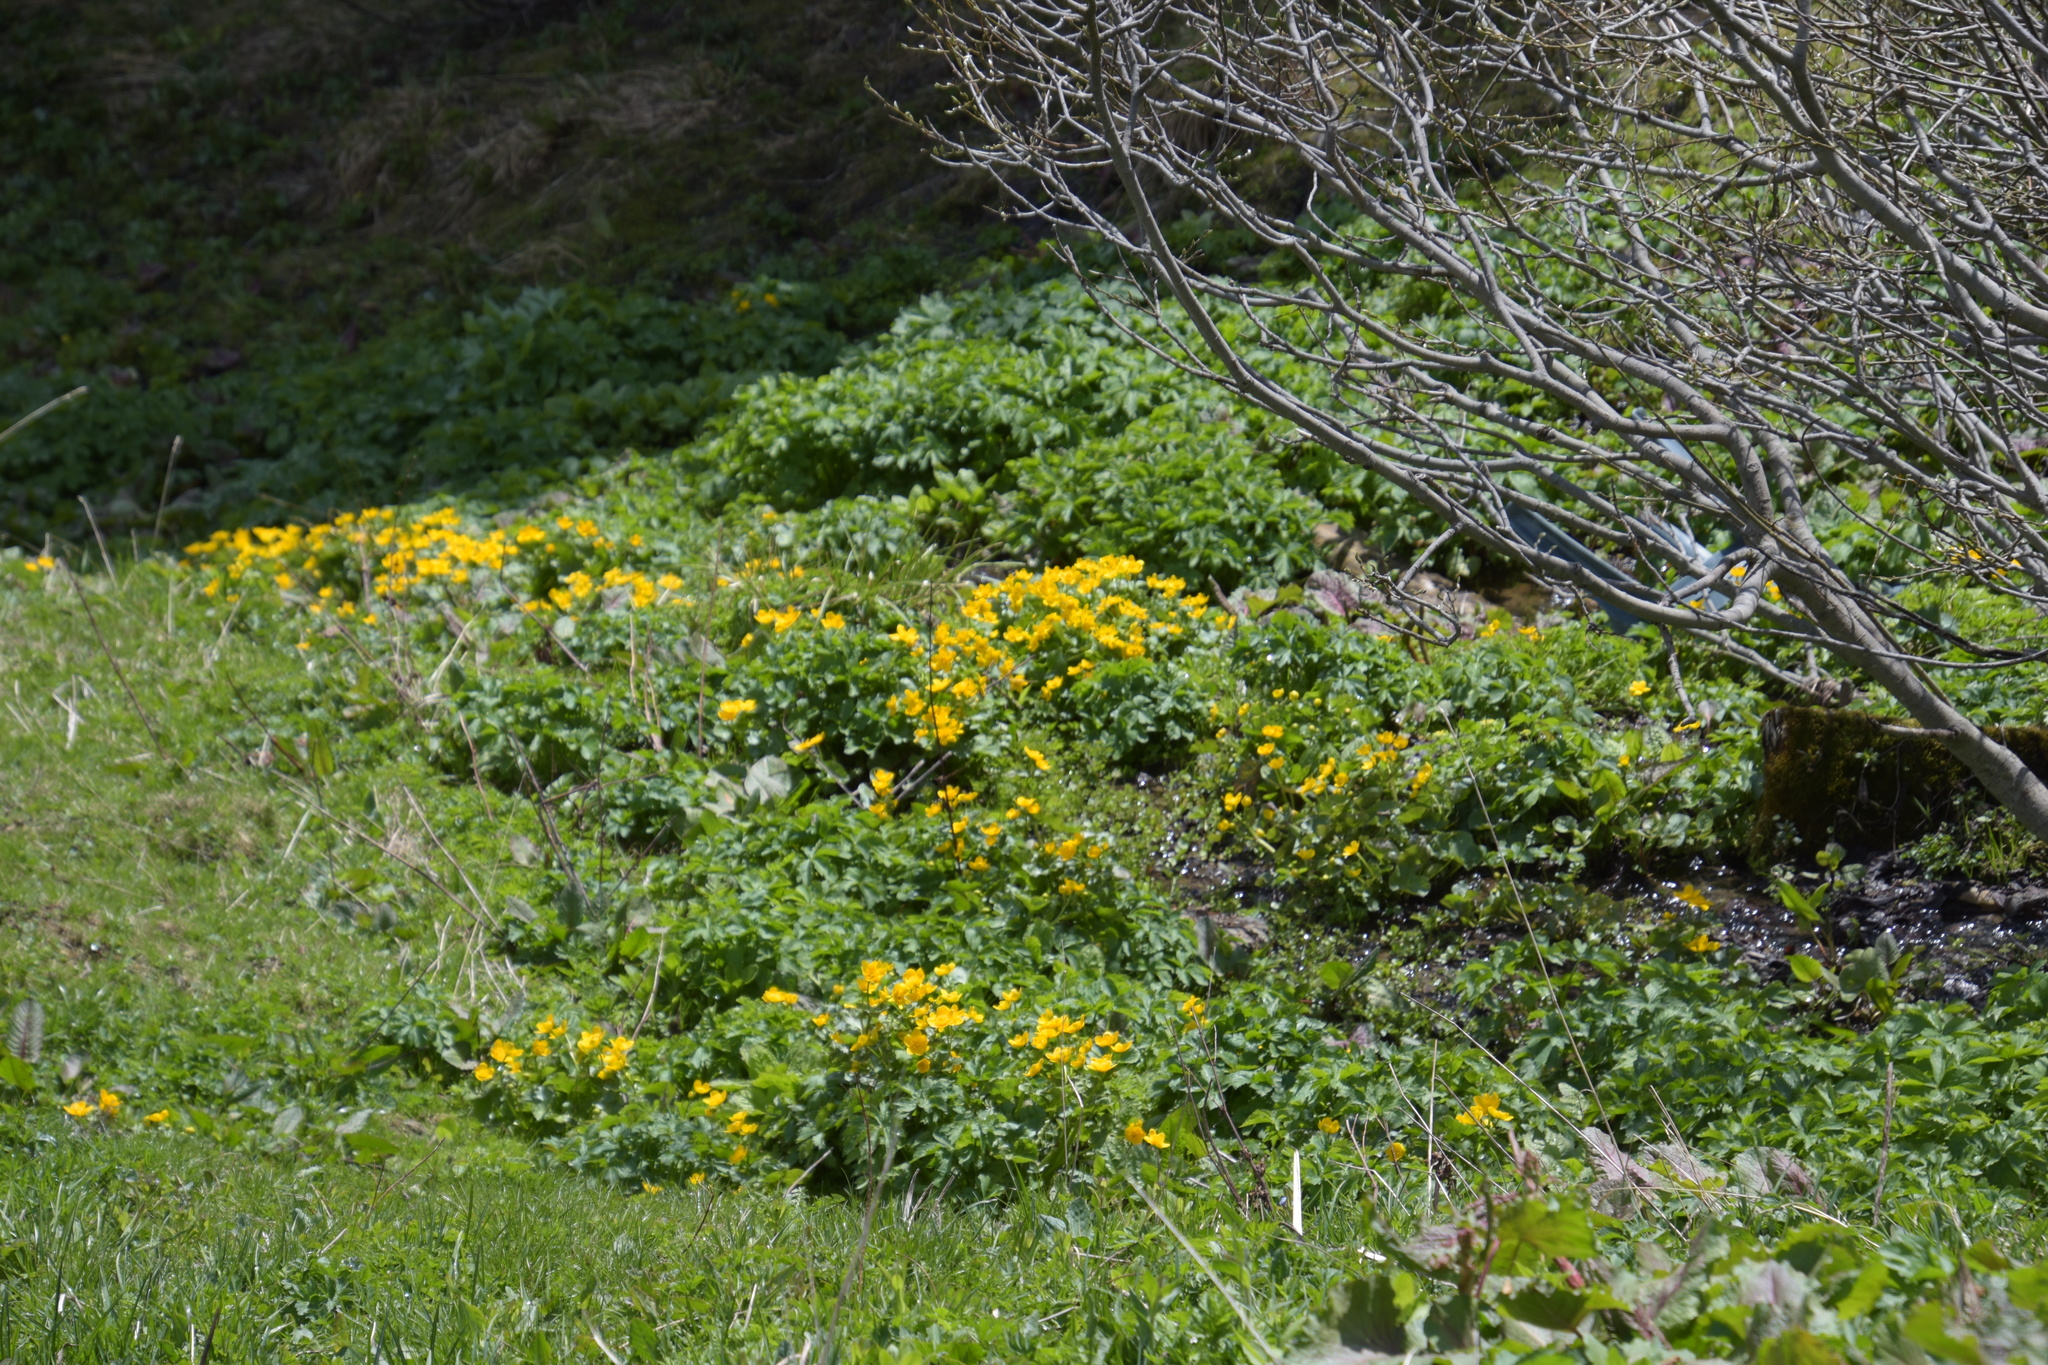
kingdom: Plantae
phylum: Tracheophyta
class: Magnoliopsida
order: Ranunculales
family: Ranunculaceae
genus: Caltha
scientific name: Caltha palustris
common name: Marsh marigold
